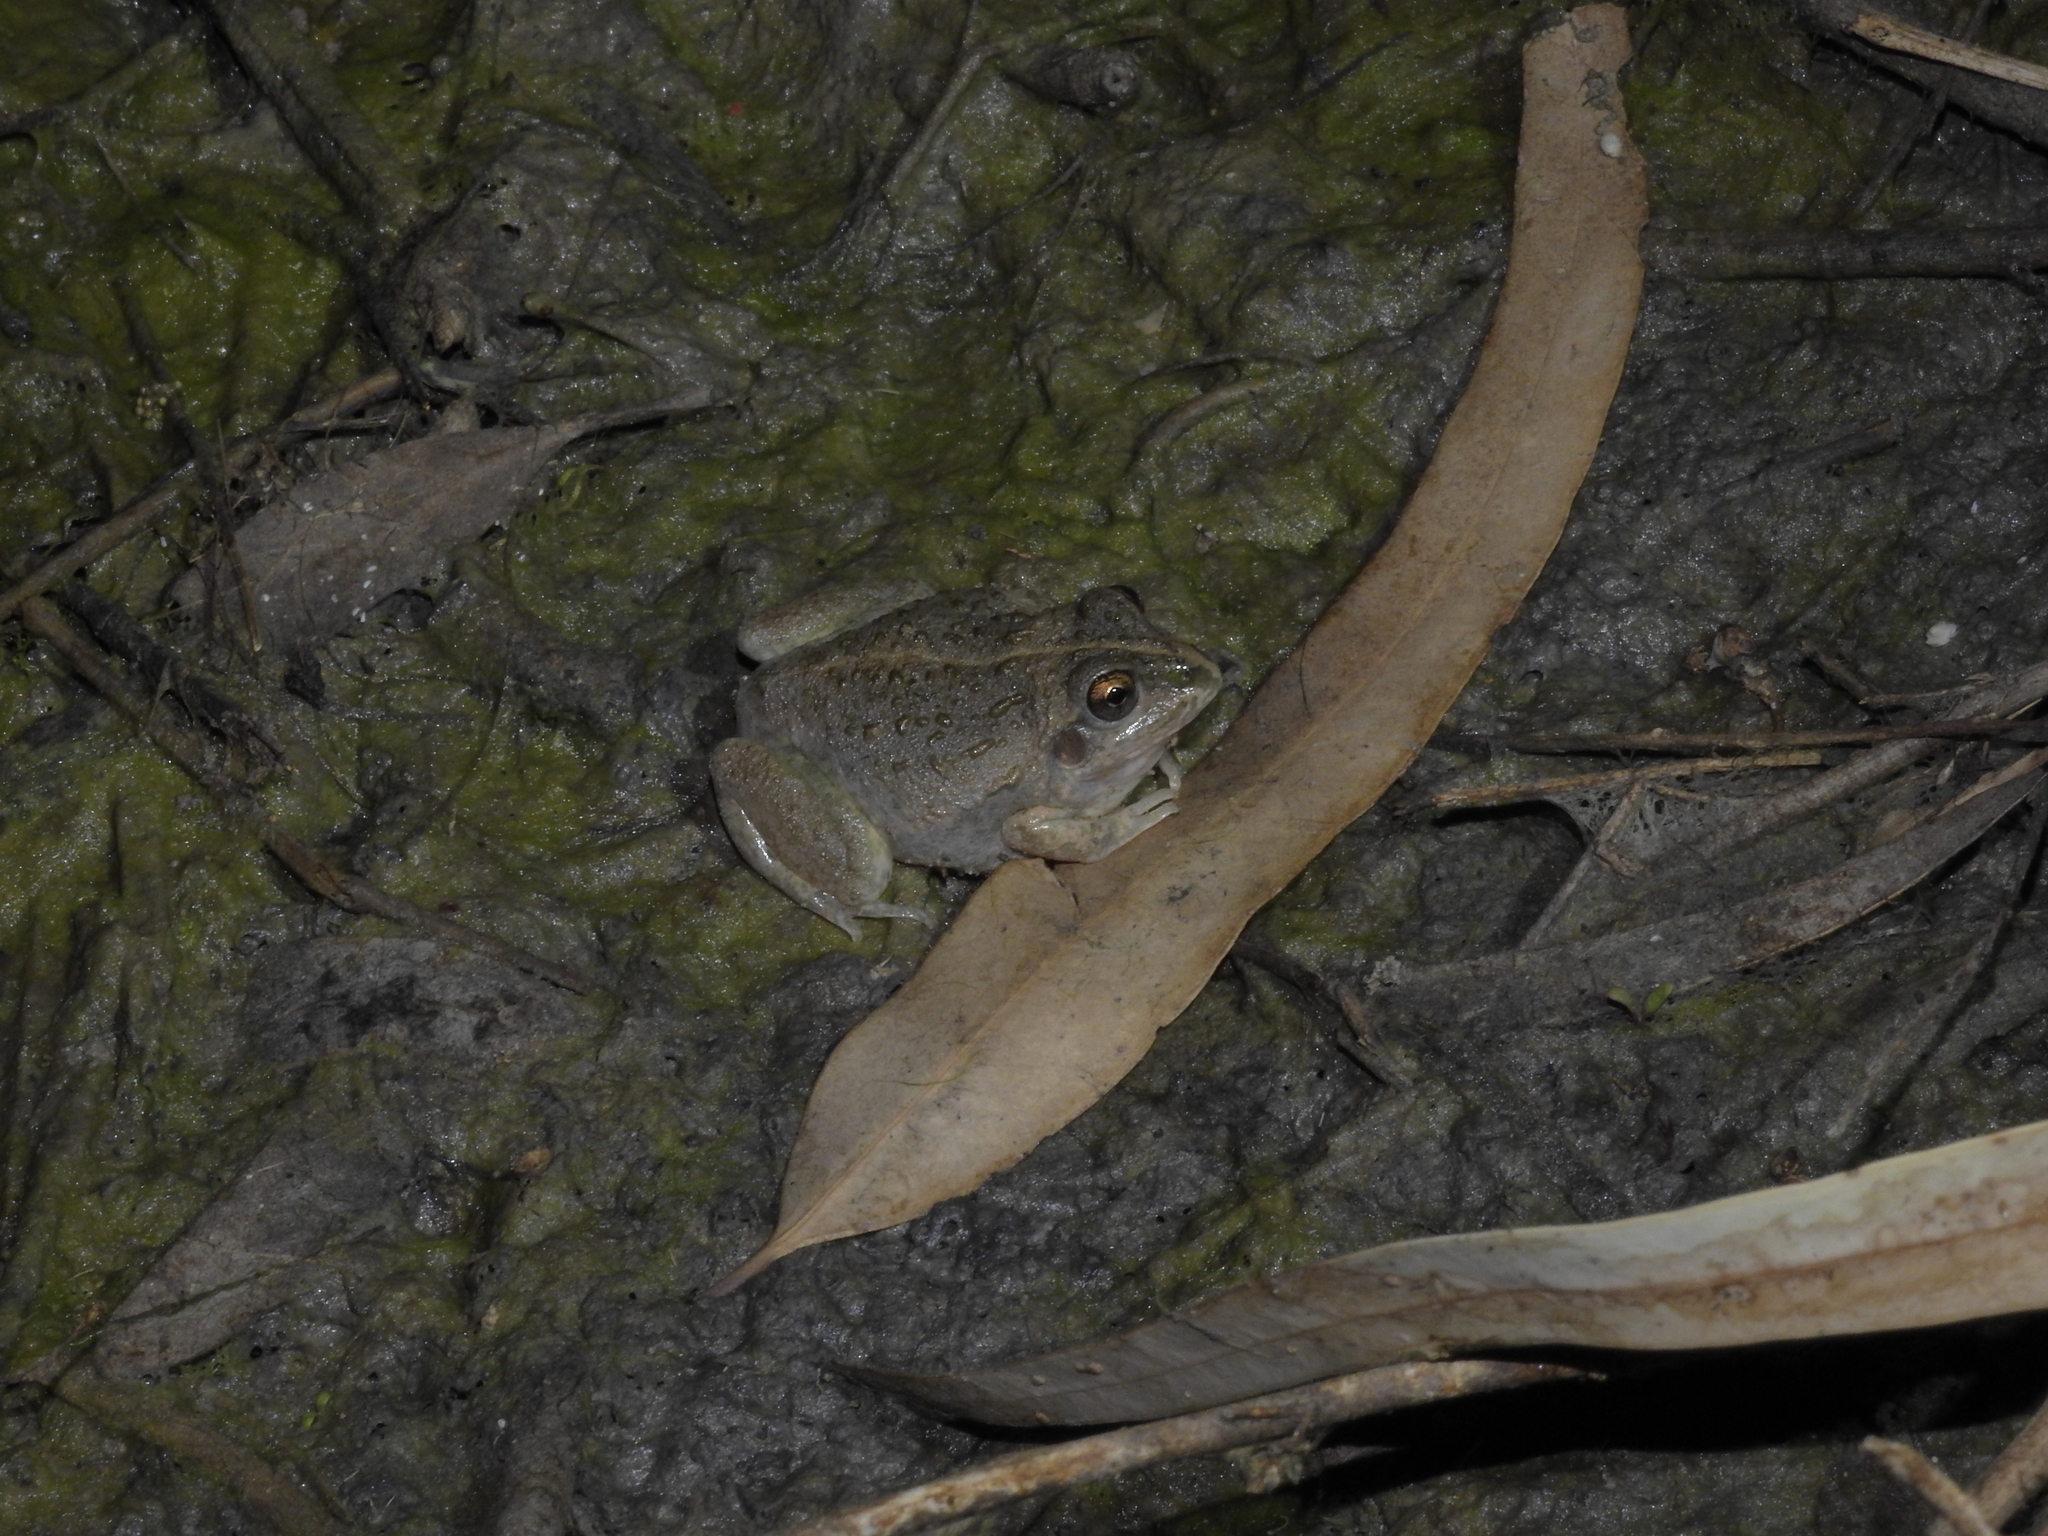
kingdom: Animalia
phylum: Chordata
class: Amphibia
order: Anura
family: Pelodryadidae
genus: Ranoidea
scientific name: Ranoidea cultripes
